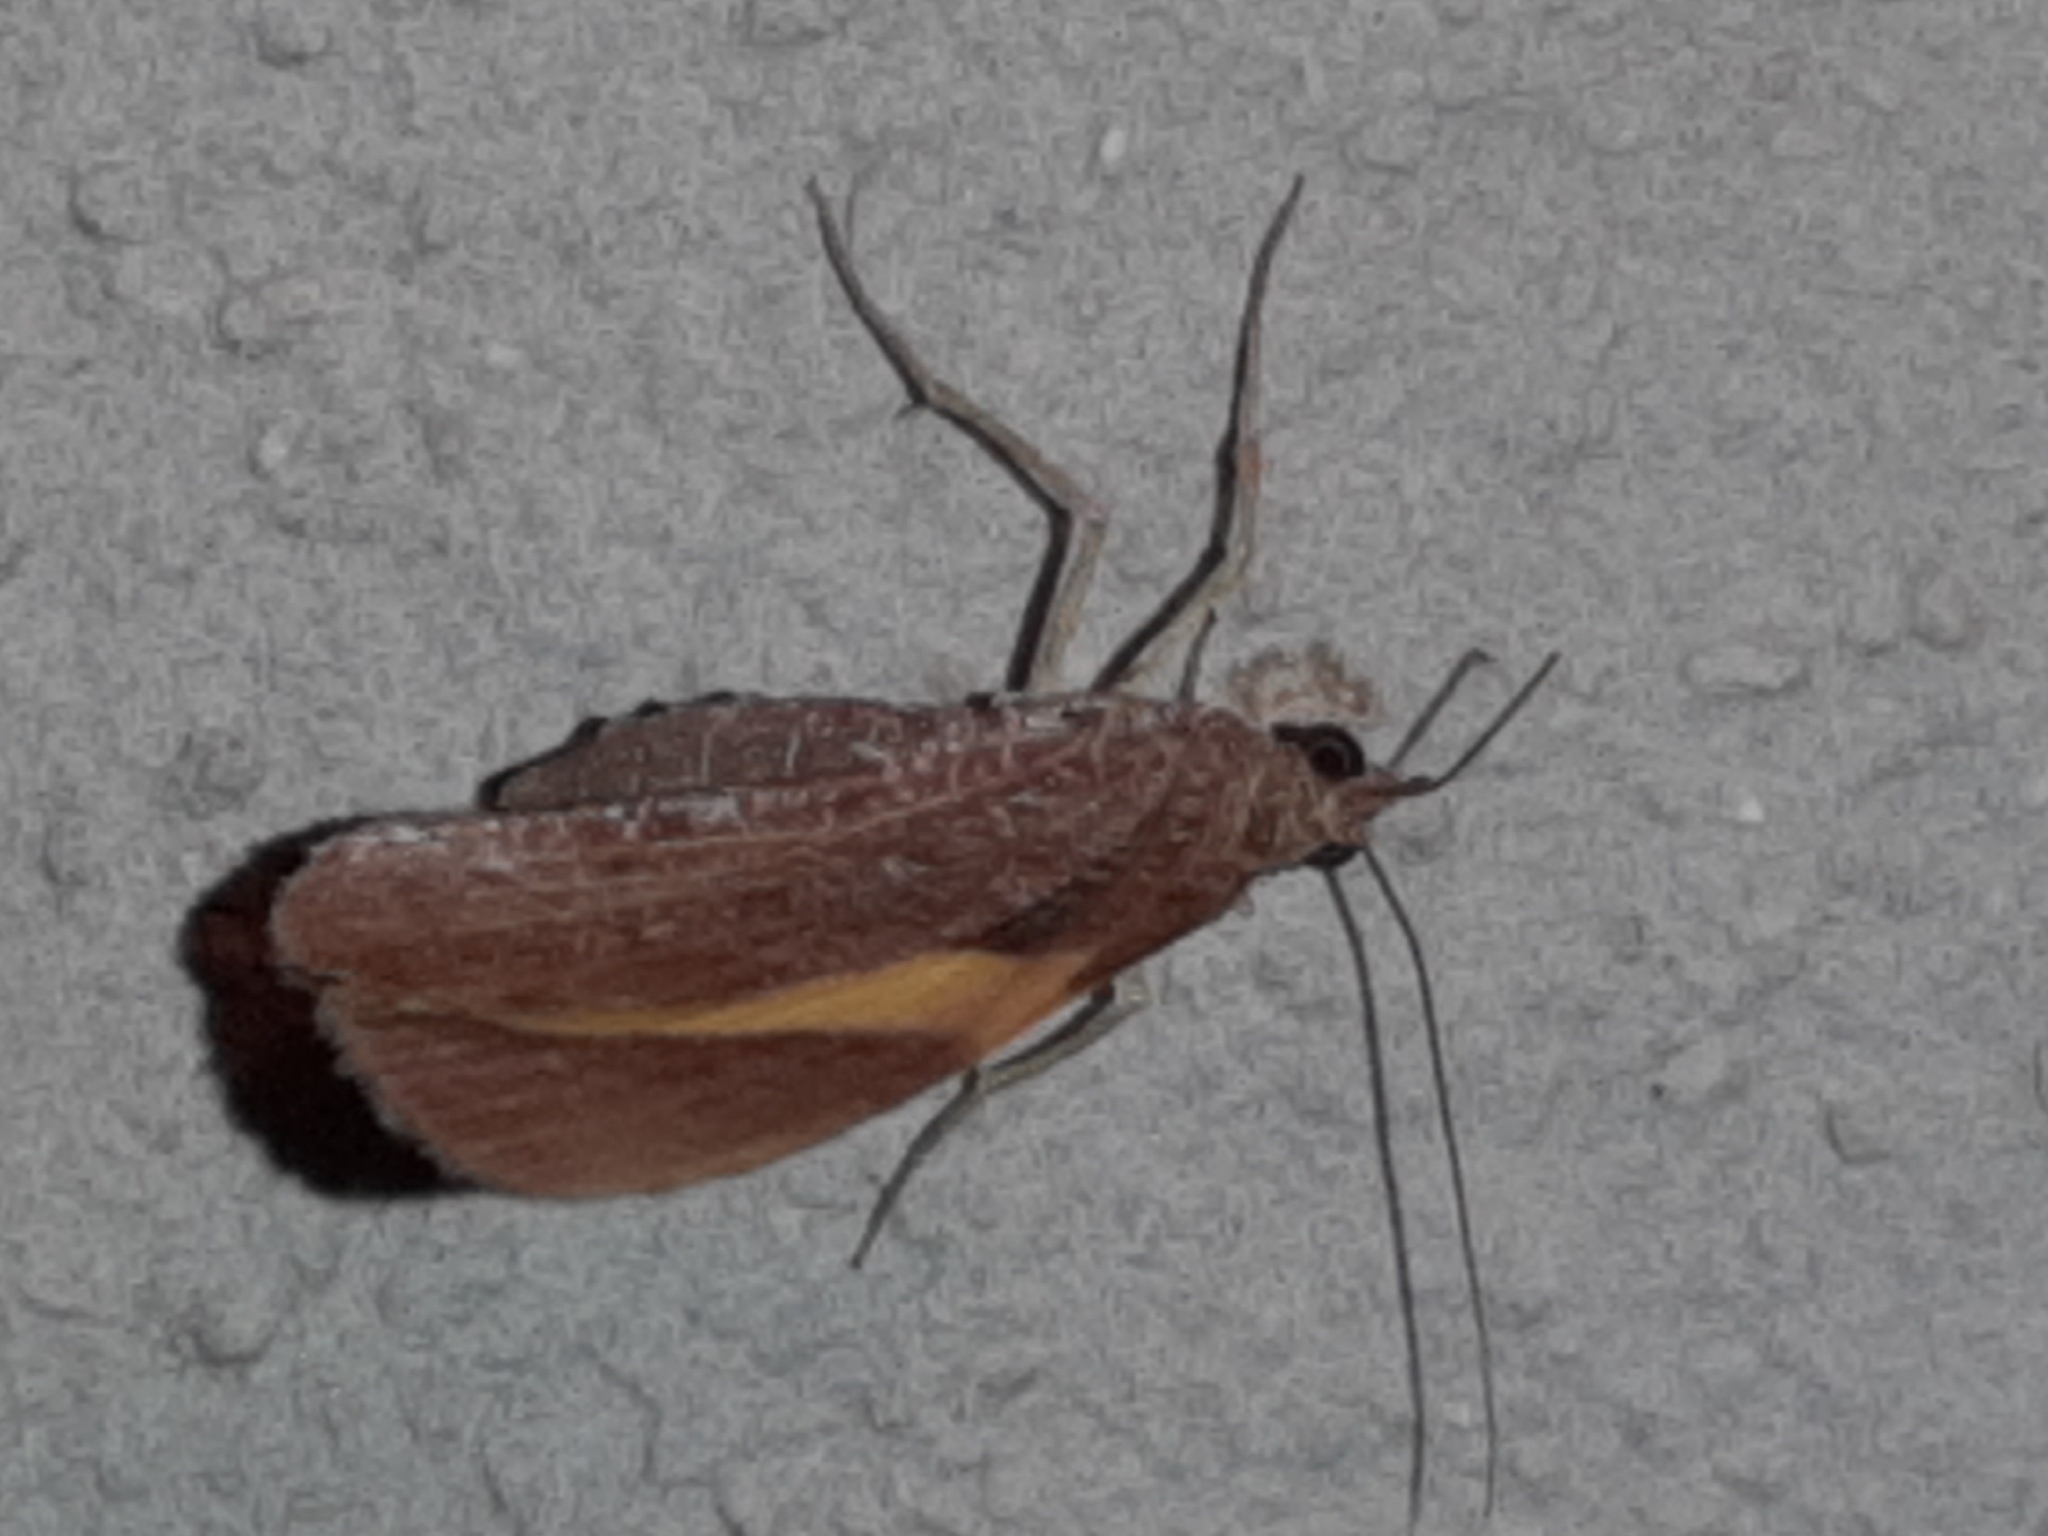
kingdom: Animalia
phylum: Arthropoda
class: Insecta
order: Lepidoptera
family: Geometridae
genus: Hagnagora
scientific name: Hagnagora ephestris
